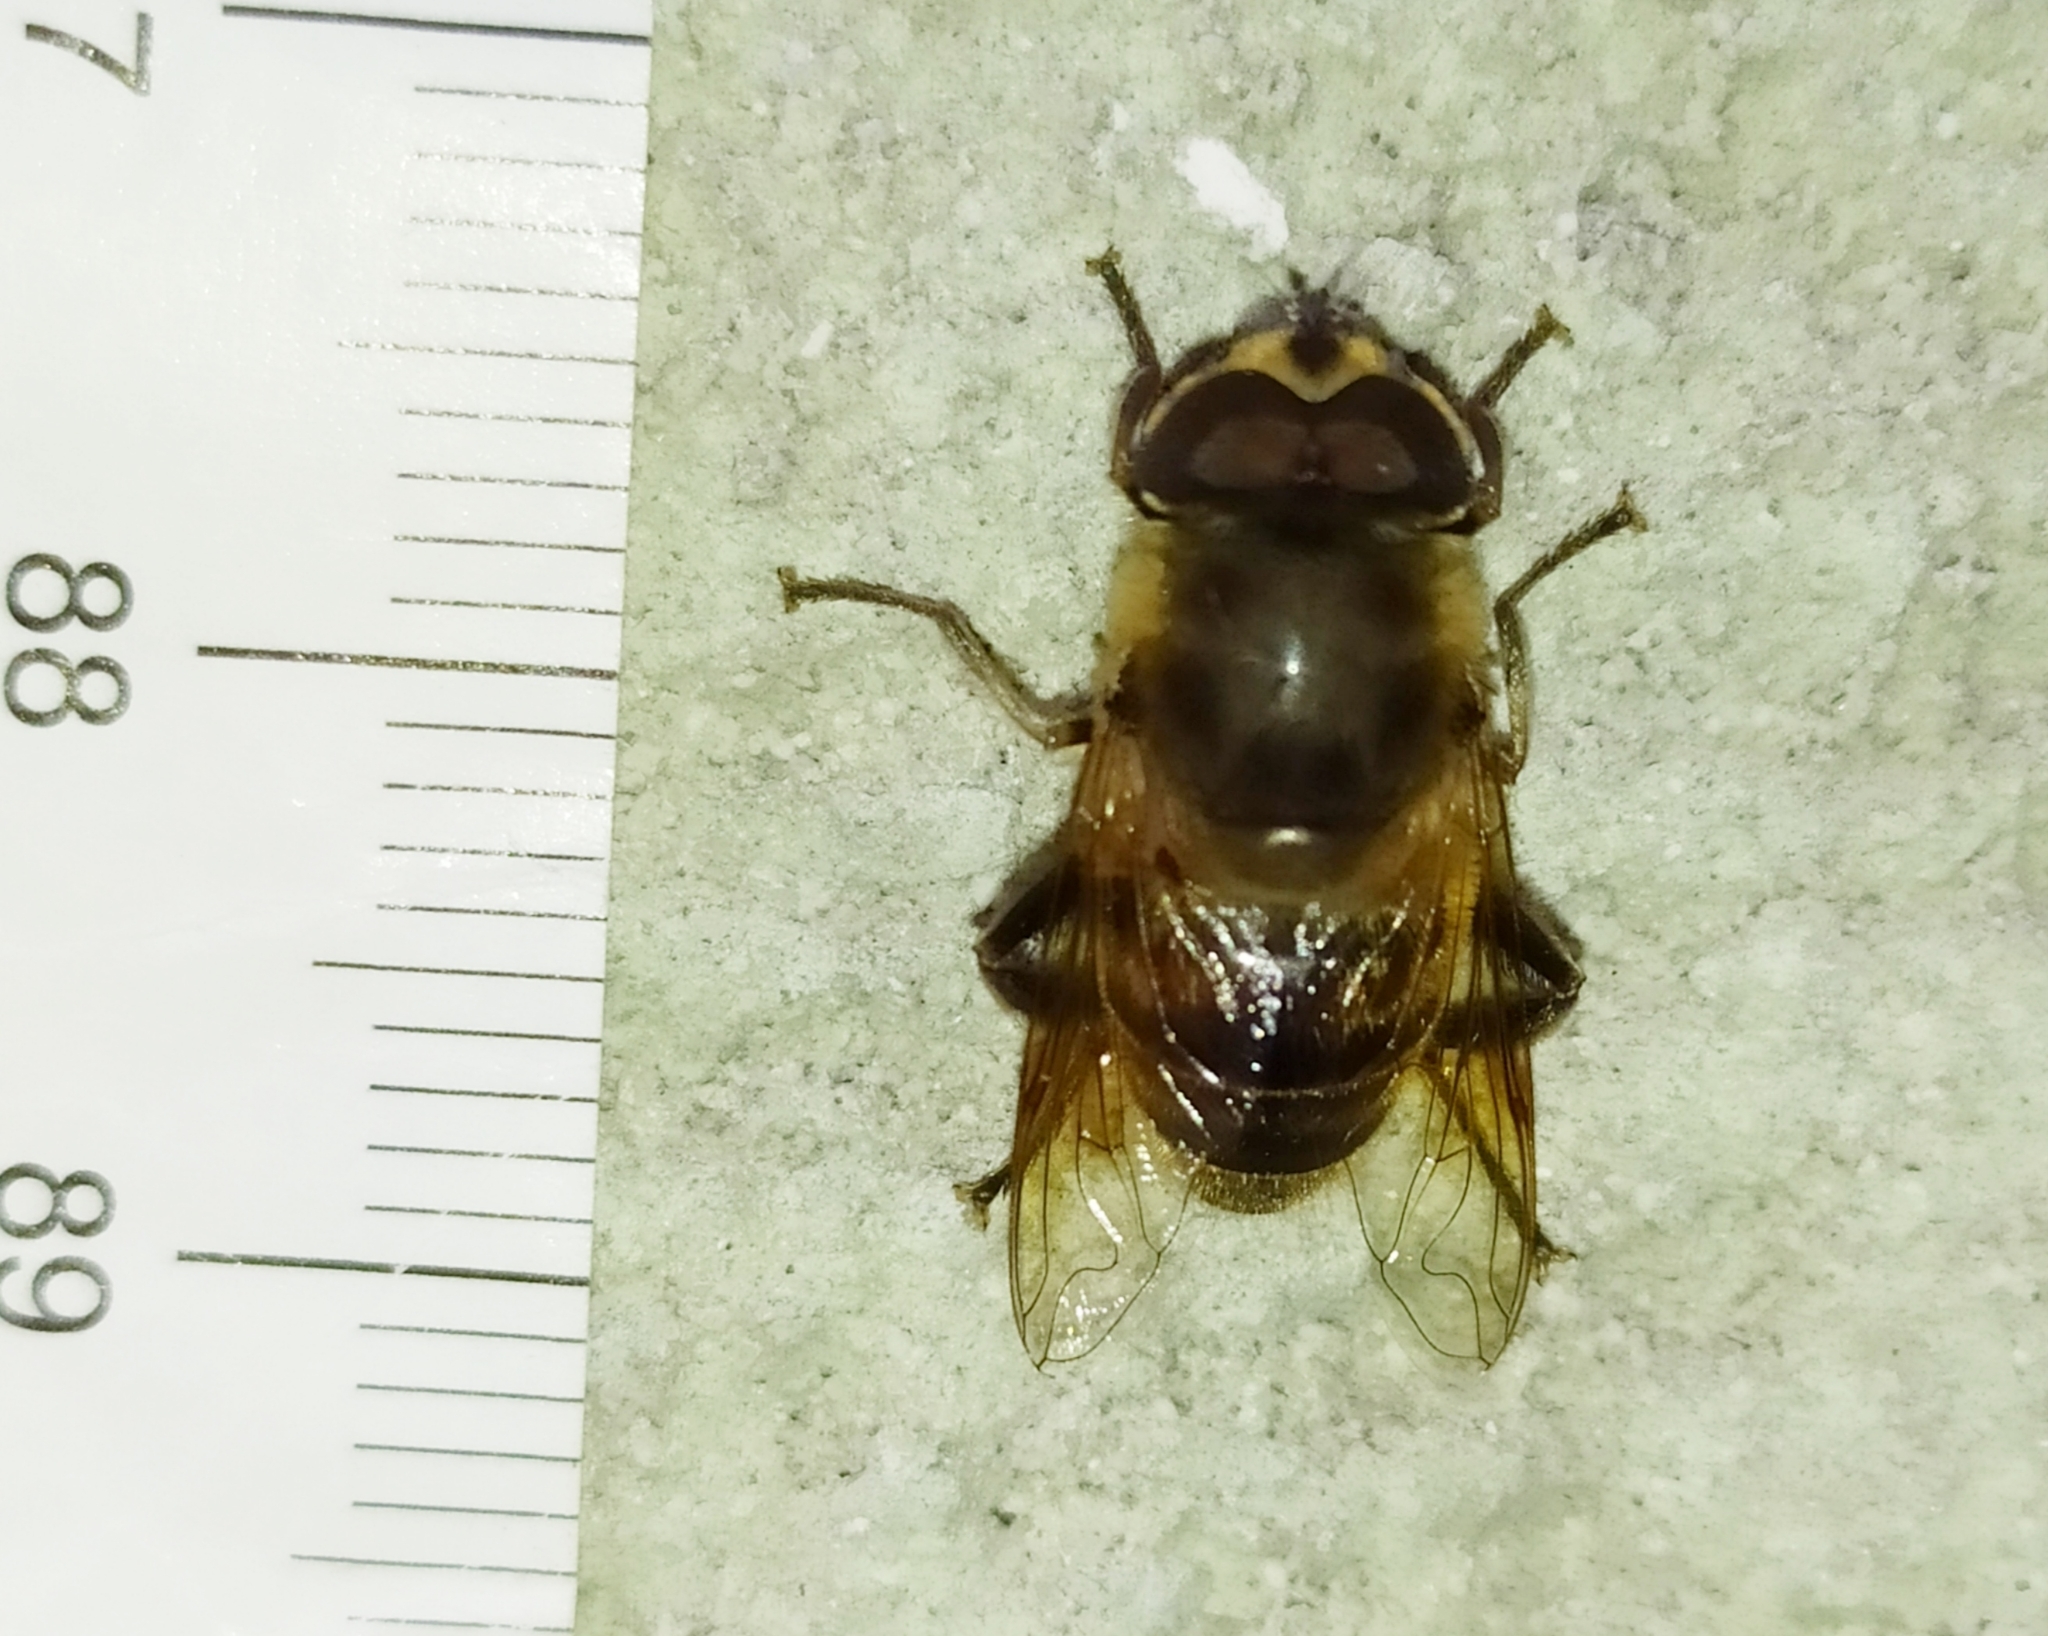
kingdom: Animalia
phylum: Arthropoda
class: Insecta
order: Diptera
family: Syrphidae
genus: Eristalis
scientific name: Eristalis tenax
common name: Drone fly
